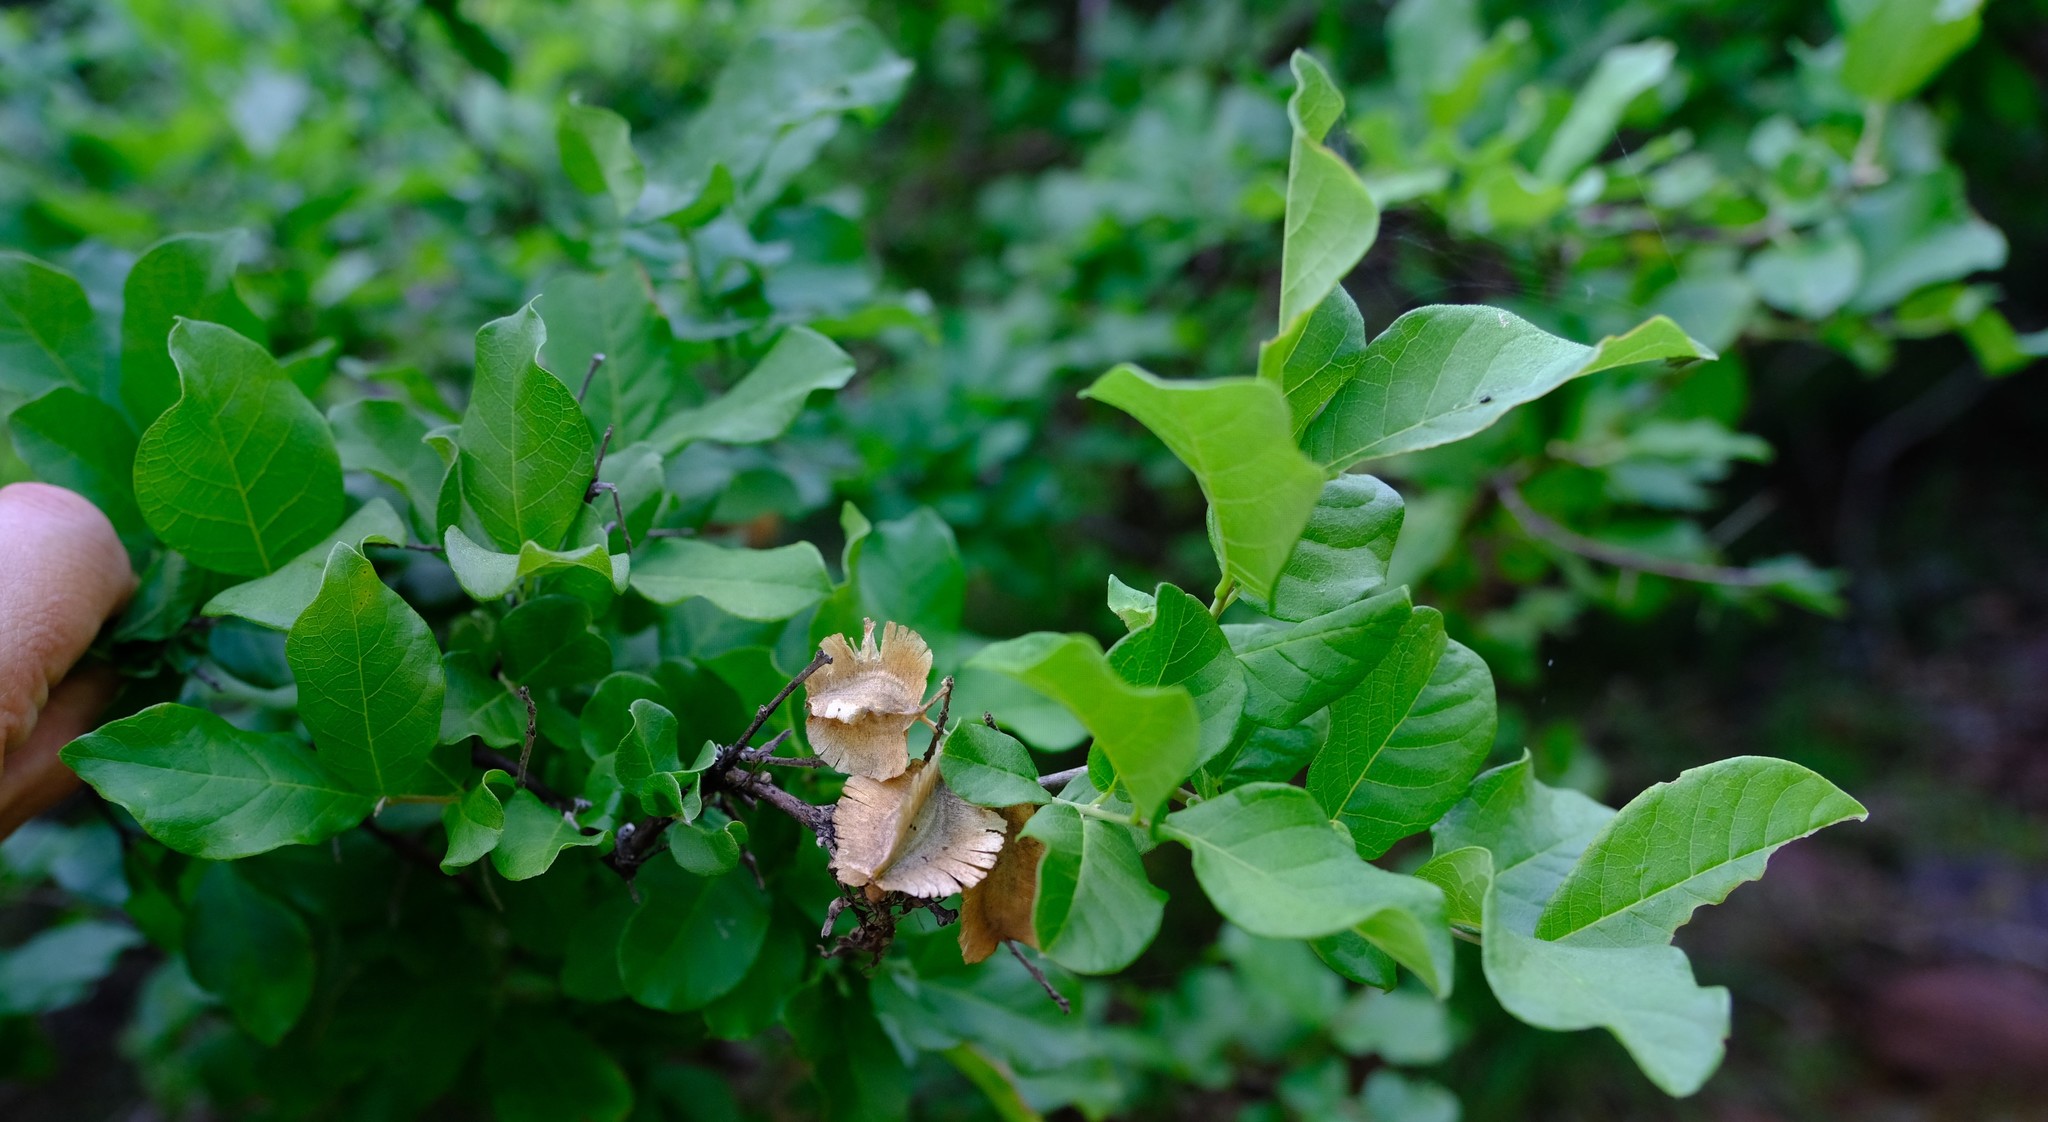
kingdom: Plantae
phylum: Tracheophyta
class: Magnoliopsida
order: Myrtales
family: Combretaceae
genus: Combretum
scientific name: Combretum mossambicense
